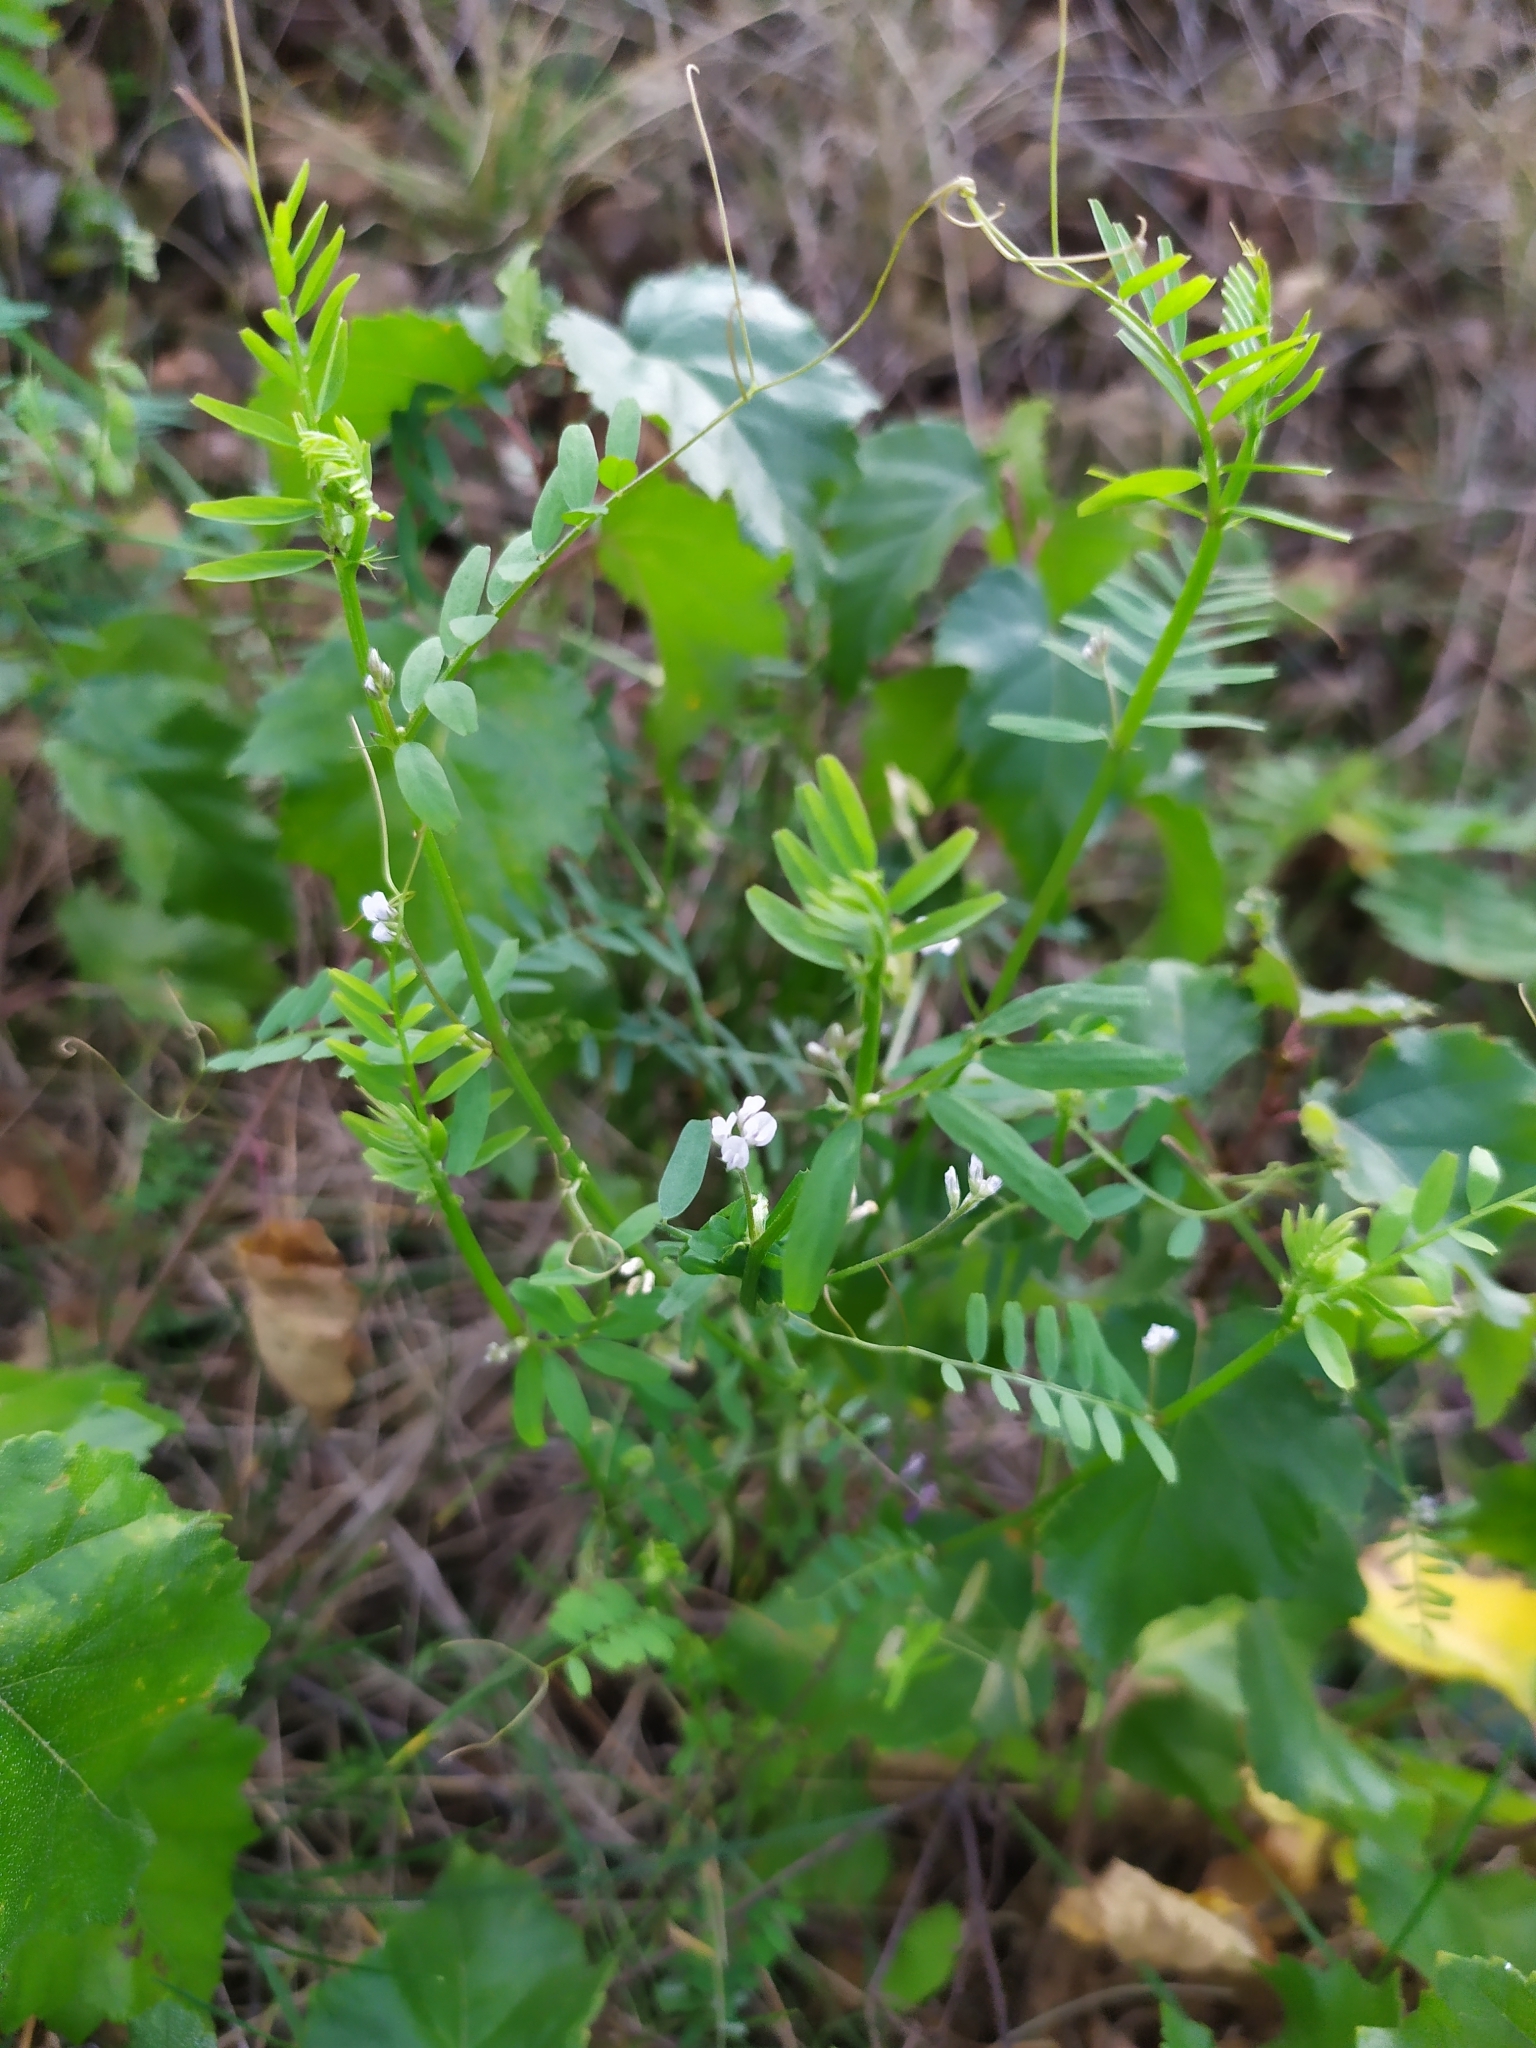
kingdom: Plantae
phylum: Tracheophyta
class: Magnoliopsida
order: Fabales
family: Fabaceae
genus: Vicia
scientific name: Vicia hirsuta
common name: Tiny vetch
